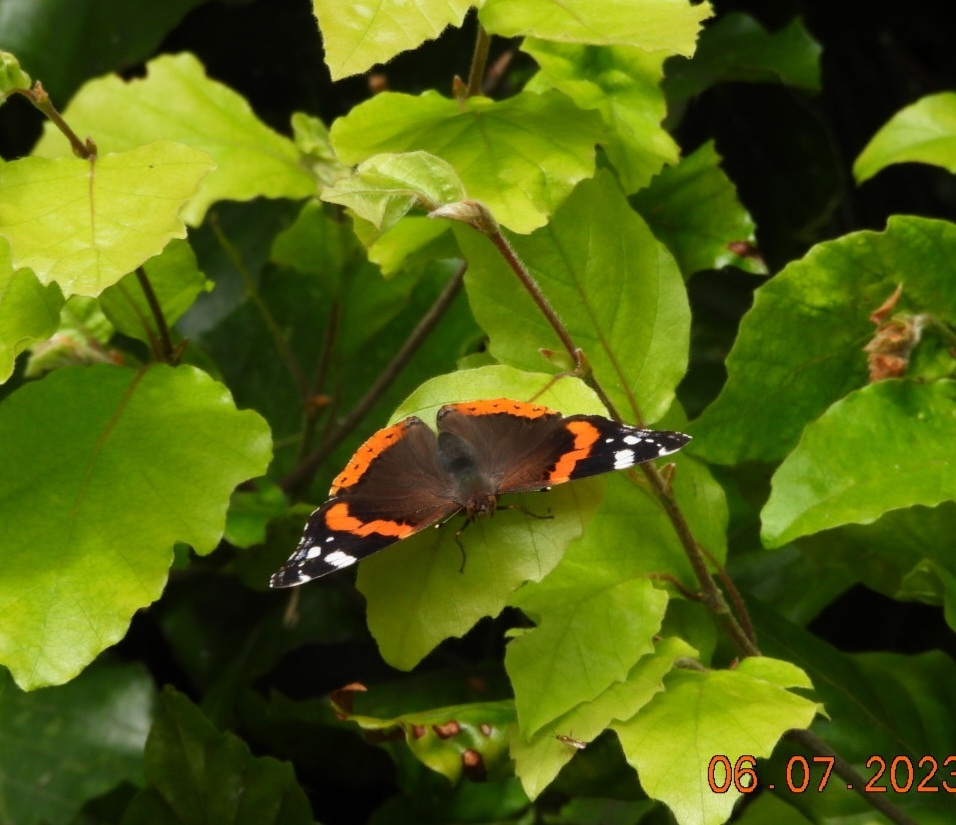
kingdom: Animalia
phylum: Arthropoda
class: Insecta
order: Lepidoptera
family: Nymphalidae
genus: Vanessa
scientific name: Vanessa atalanta
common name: Red admiral
